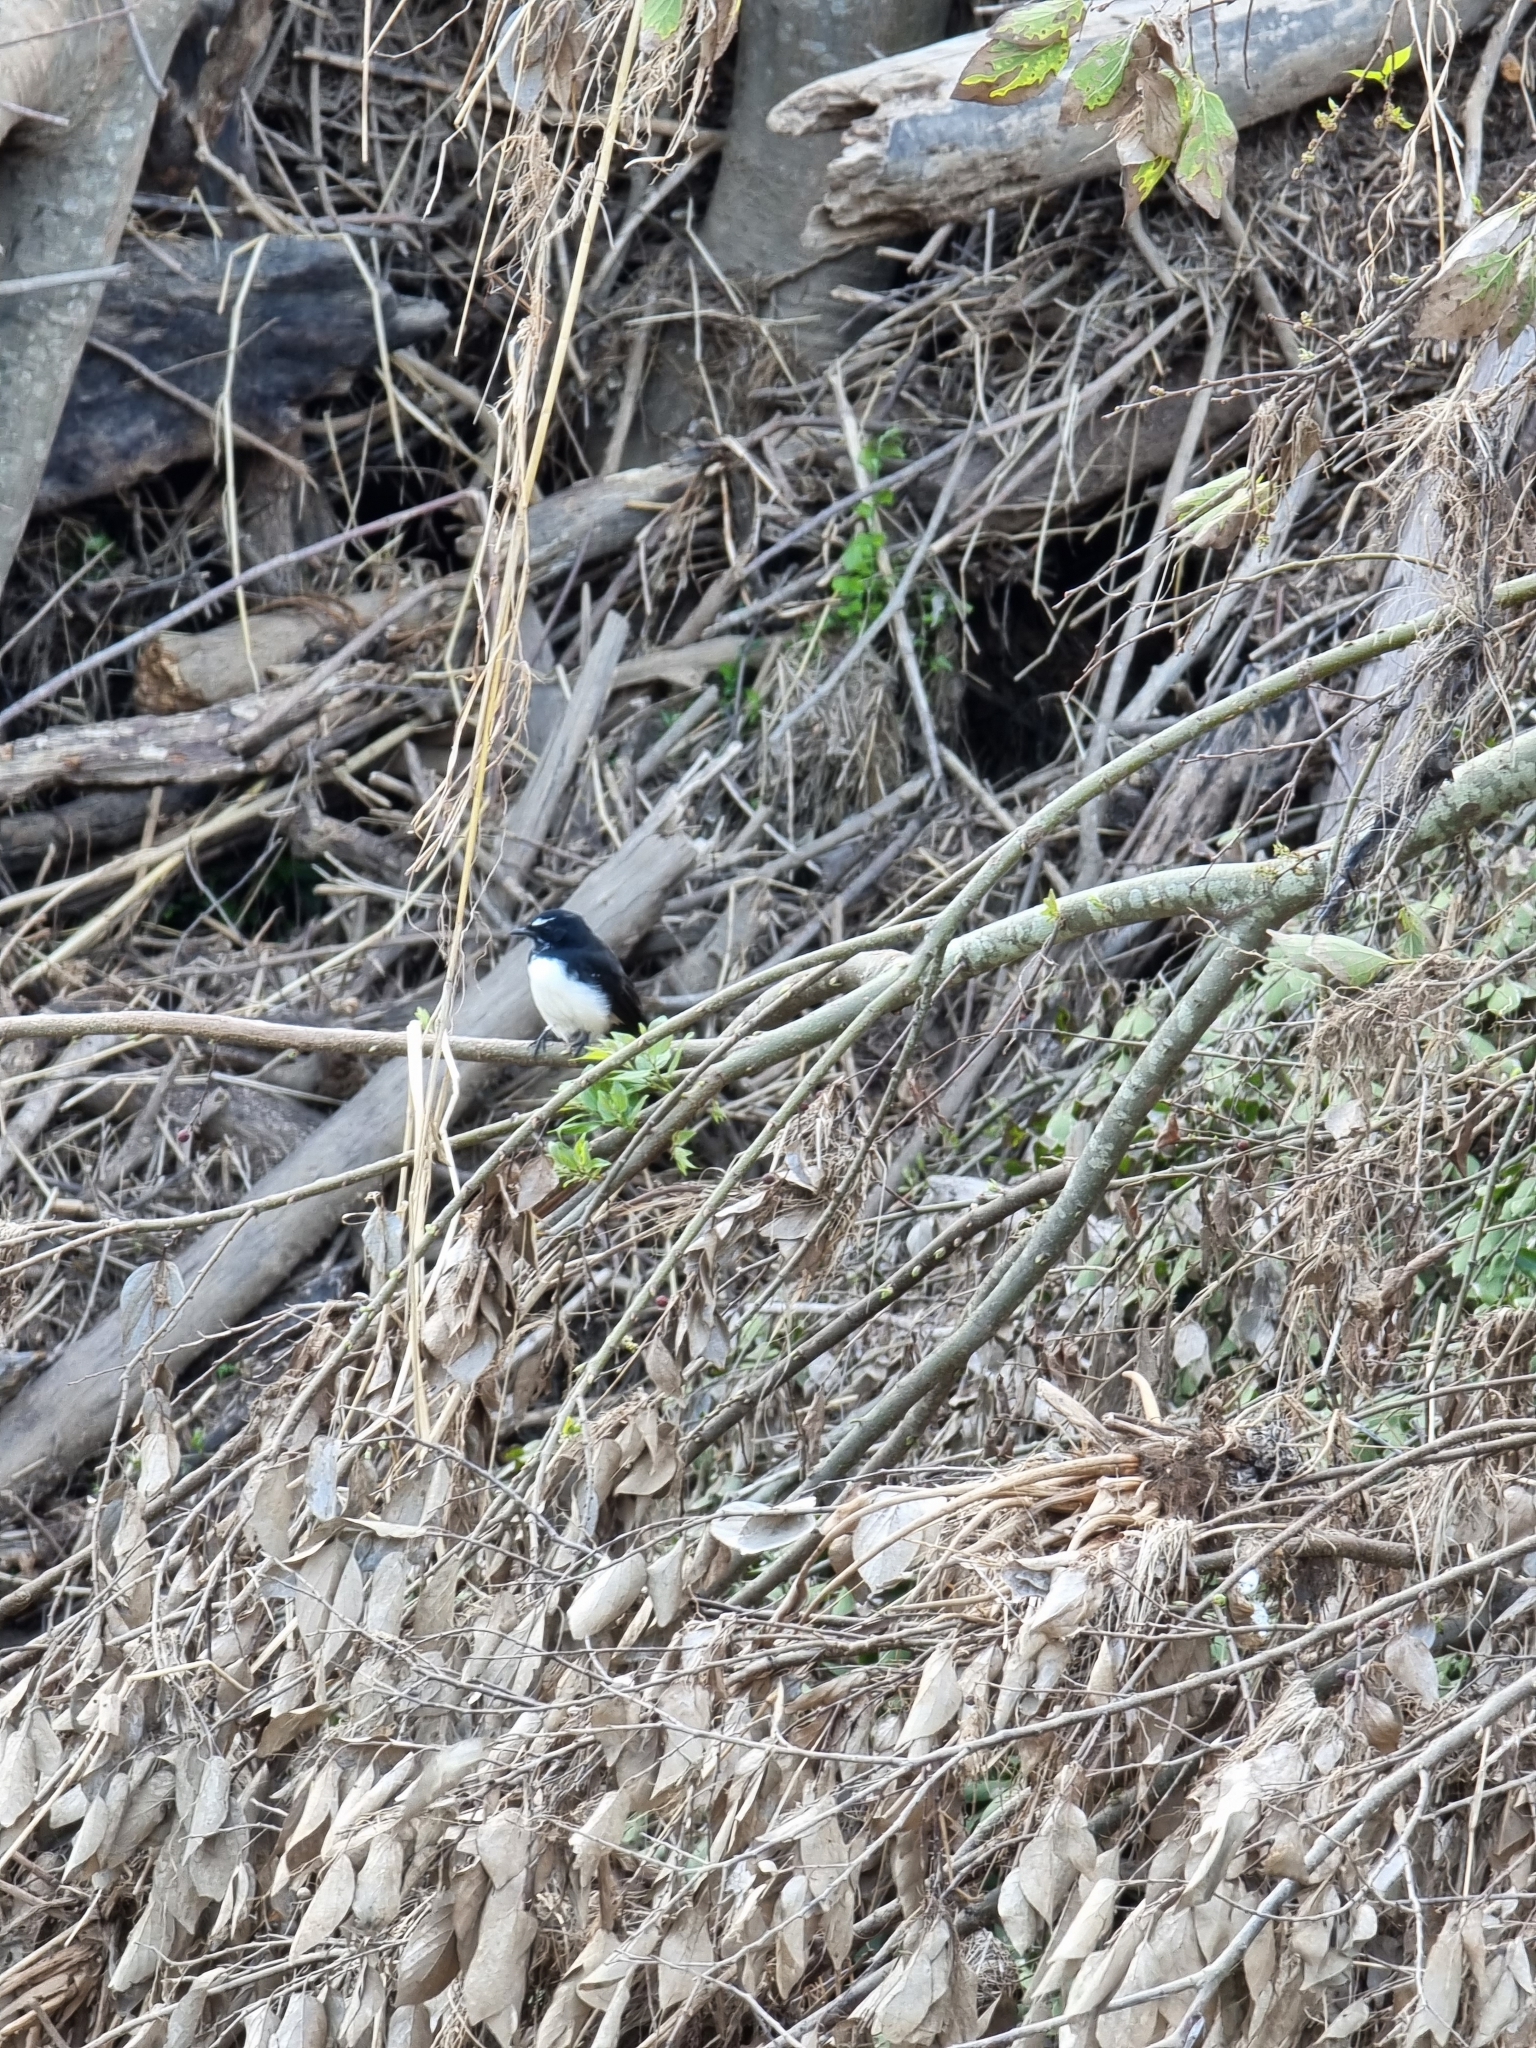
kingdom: Animalia
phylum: Chordata
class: Aves
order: Passeriformes
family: Rhipiduridae
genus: Rhipidura
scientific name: Rhipidura leucophrys
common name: Willie wagtail
